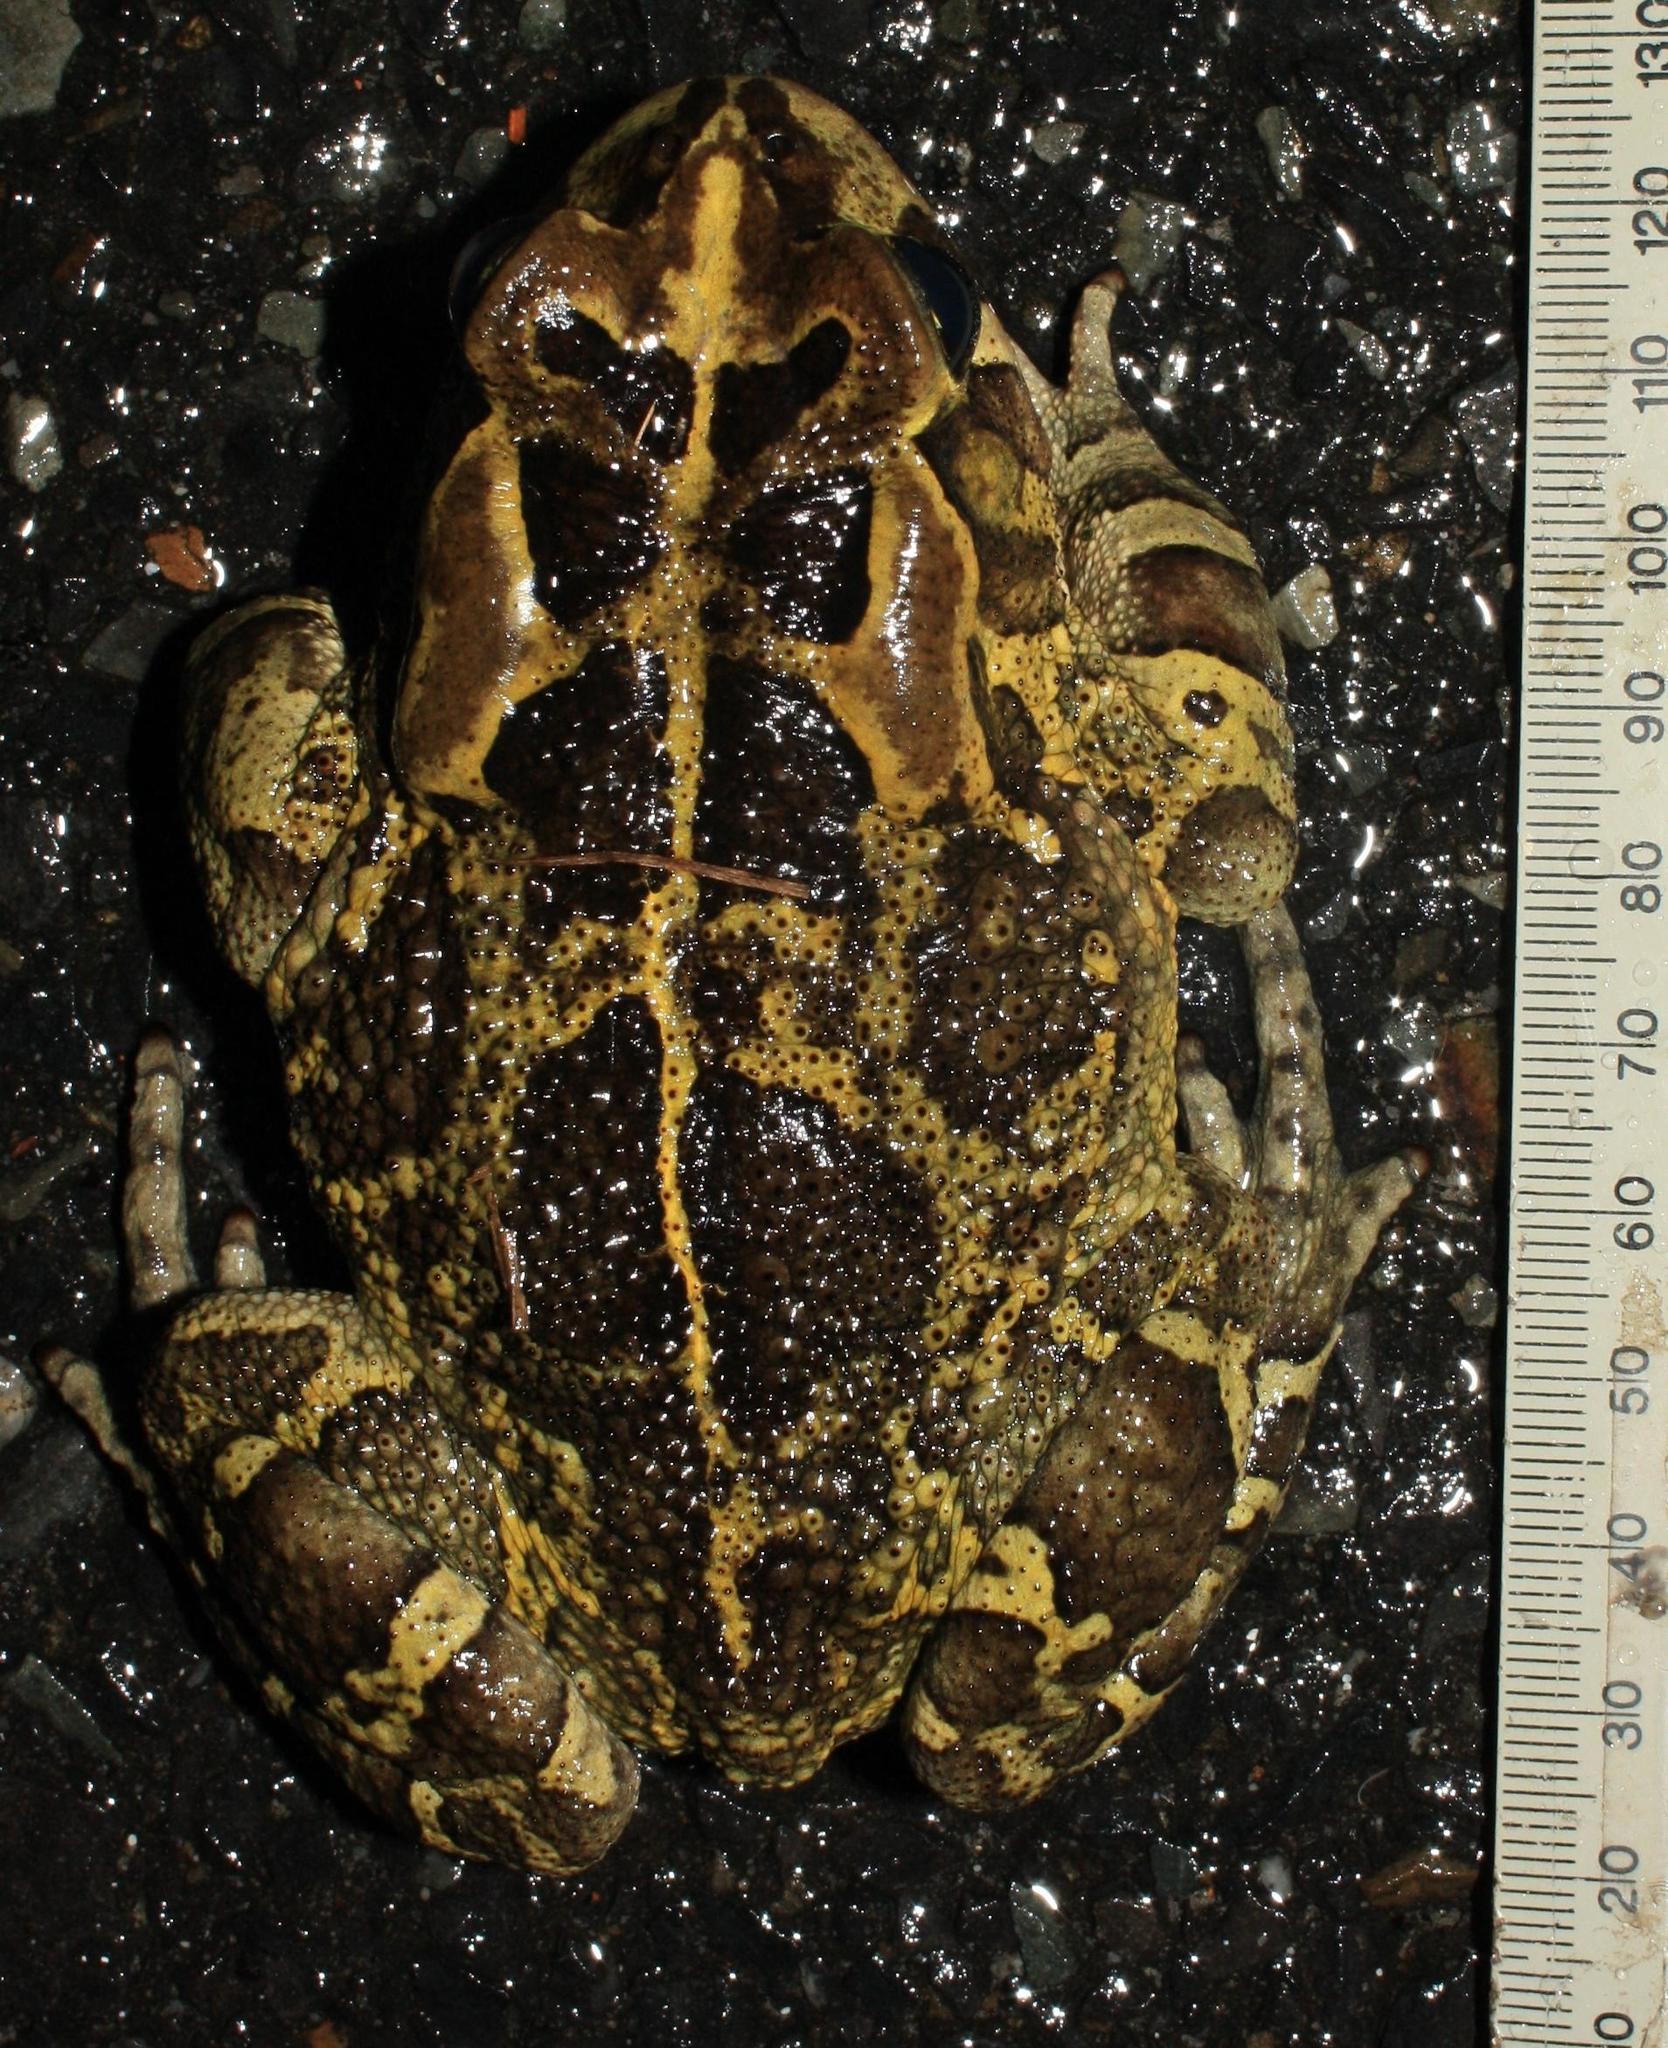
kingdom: Animalia
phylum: Chordata
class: Amphibia
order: Anura
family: Bufonidae
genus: Sclerophrys
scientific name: Sclerophrys pantherina
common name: Panther toad
